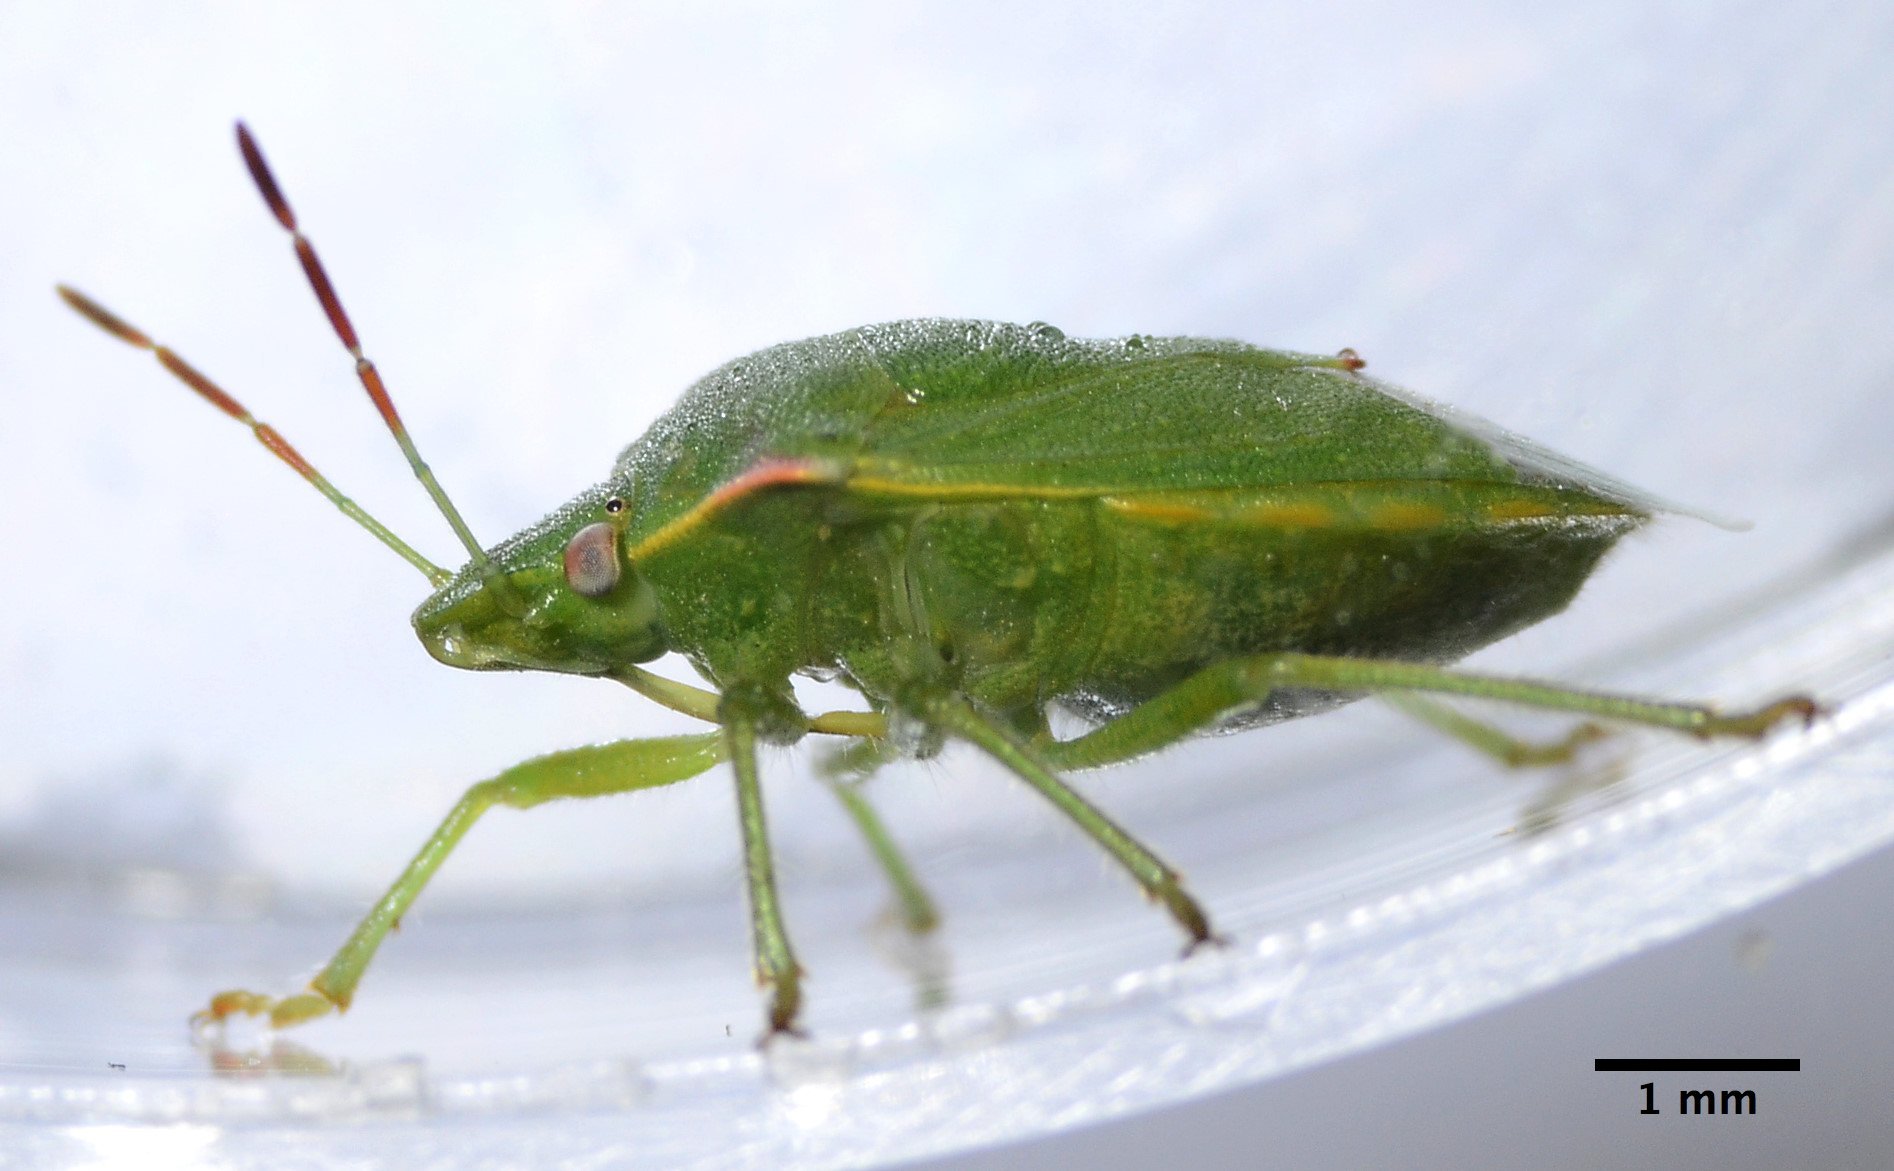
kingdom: Animalia
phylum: Arthropoda
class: Insecta
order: Hemiptera
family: Pentatomidae
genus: Thyanta
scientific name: Thyanta pallidovirens
